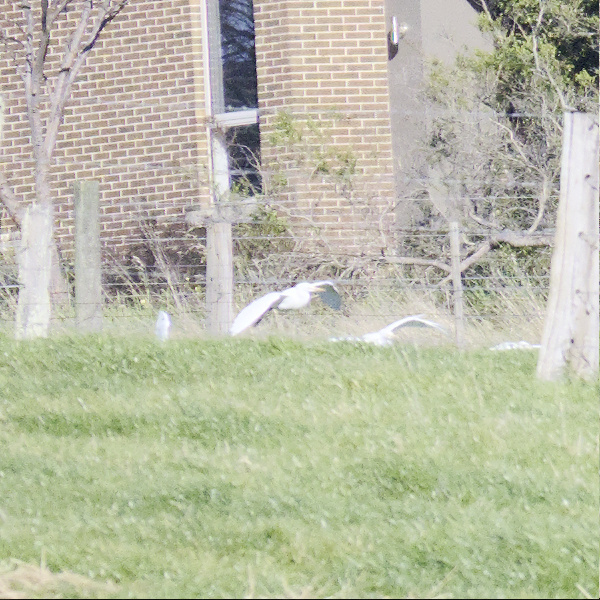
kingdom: Animalia
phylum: Chordata
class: Aves
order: Pelecaniformes
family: Ardeidae
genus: Bubulcus
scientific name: Bubulcus coromandus
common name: Eastern cattle egret
